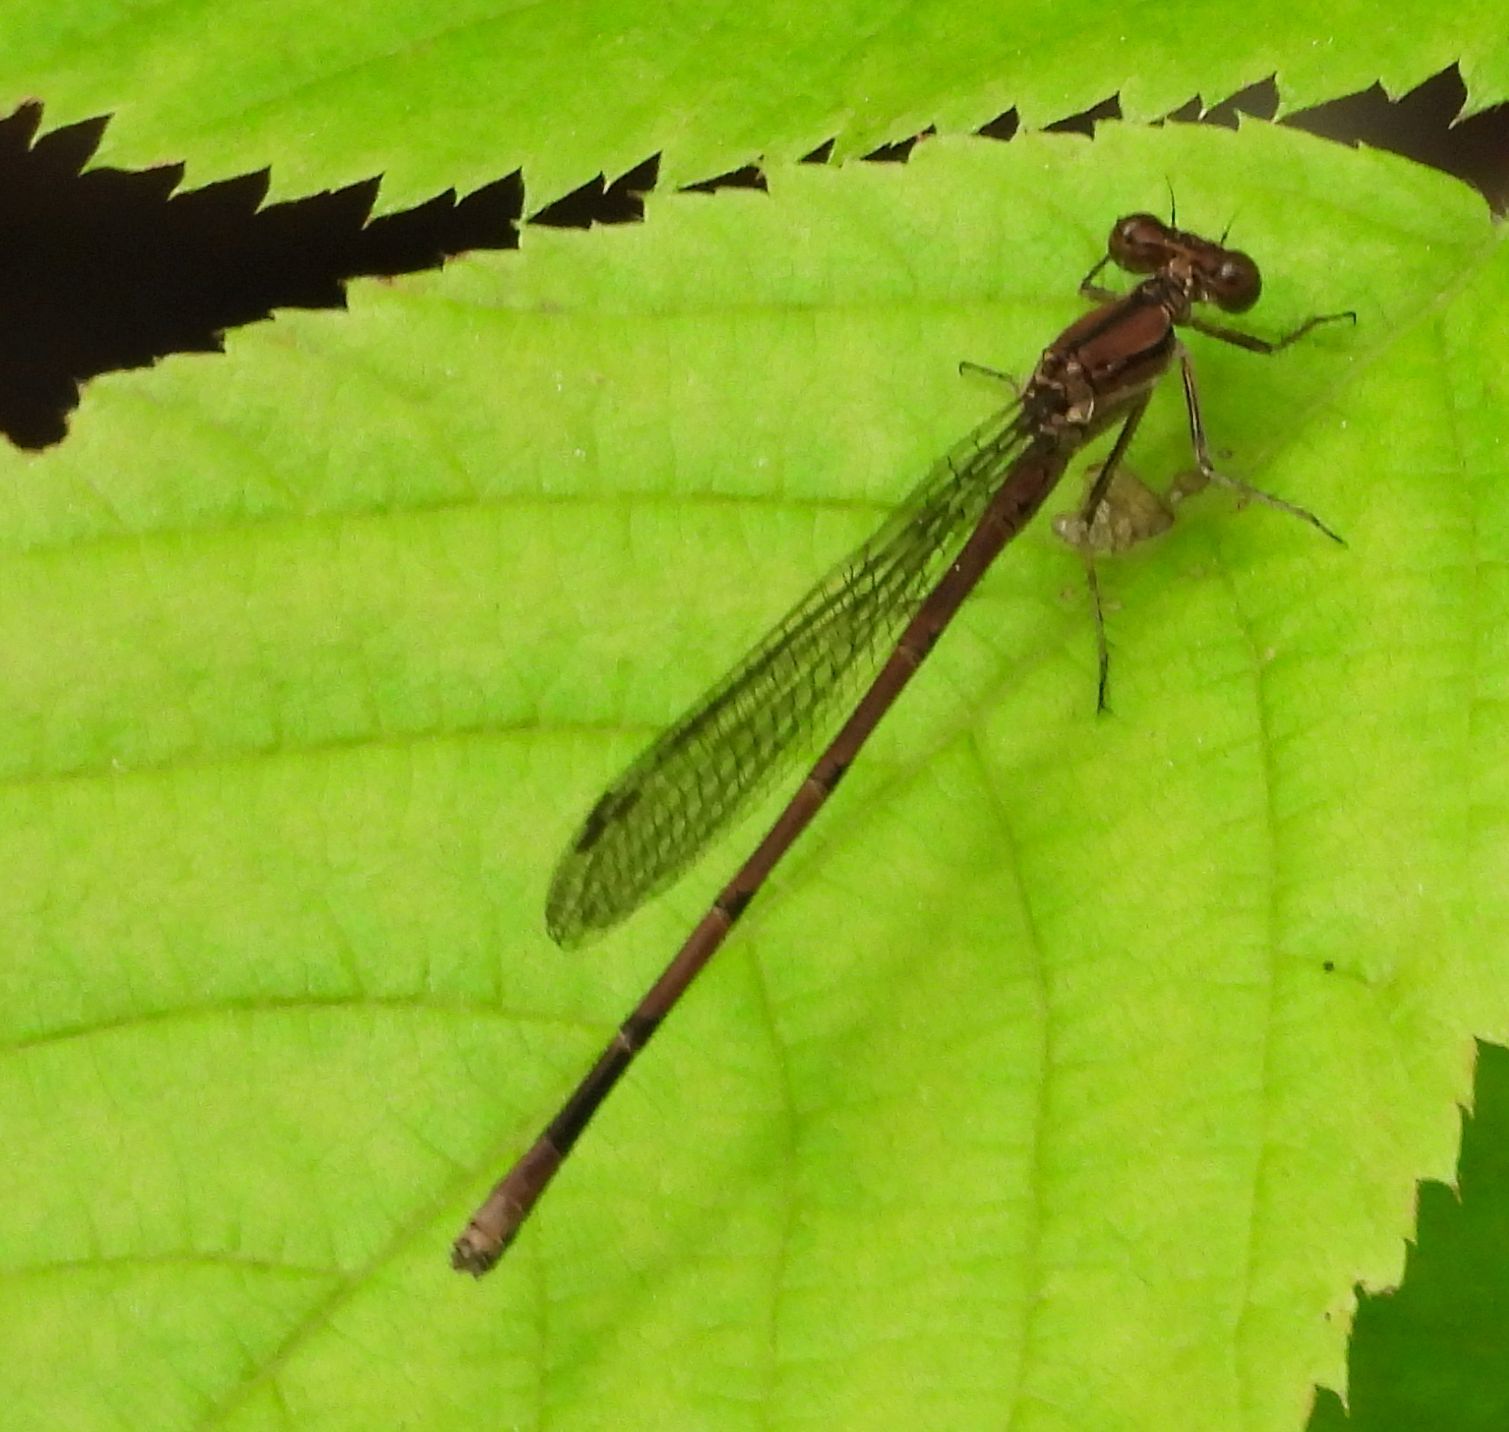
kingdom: Animalia
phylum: Arthropoda
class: Insecta
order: Odonata
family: Coenagrionidae
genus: Argia
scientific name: Argia fumipennis
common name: Variable dancer
